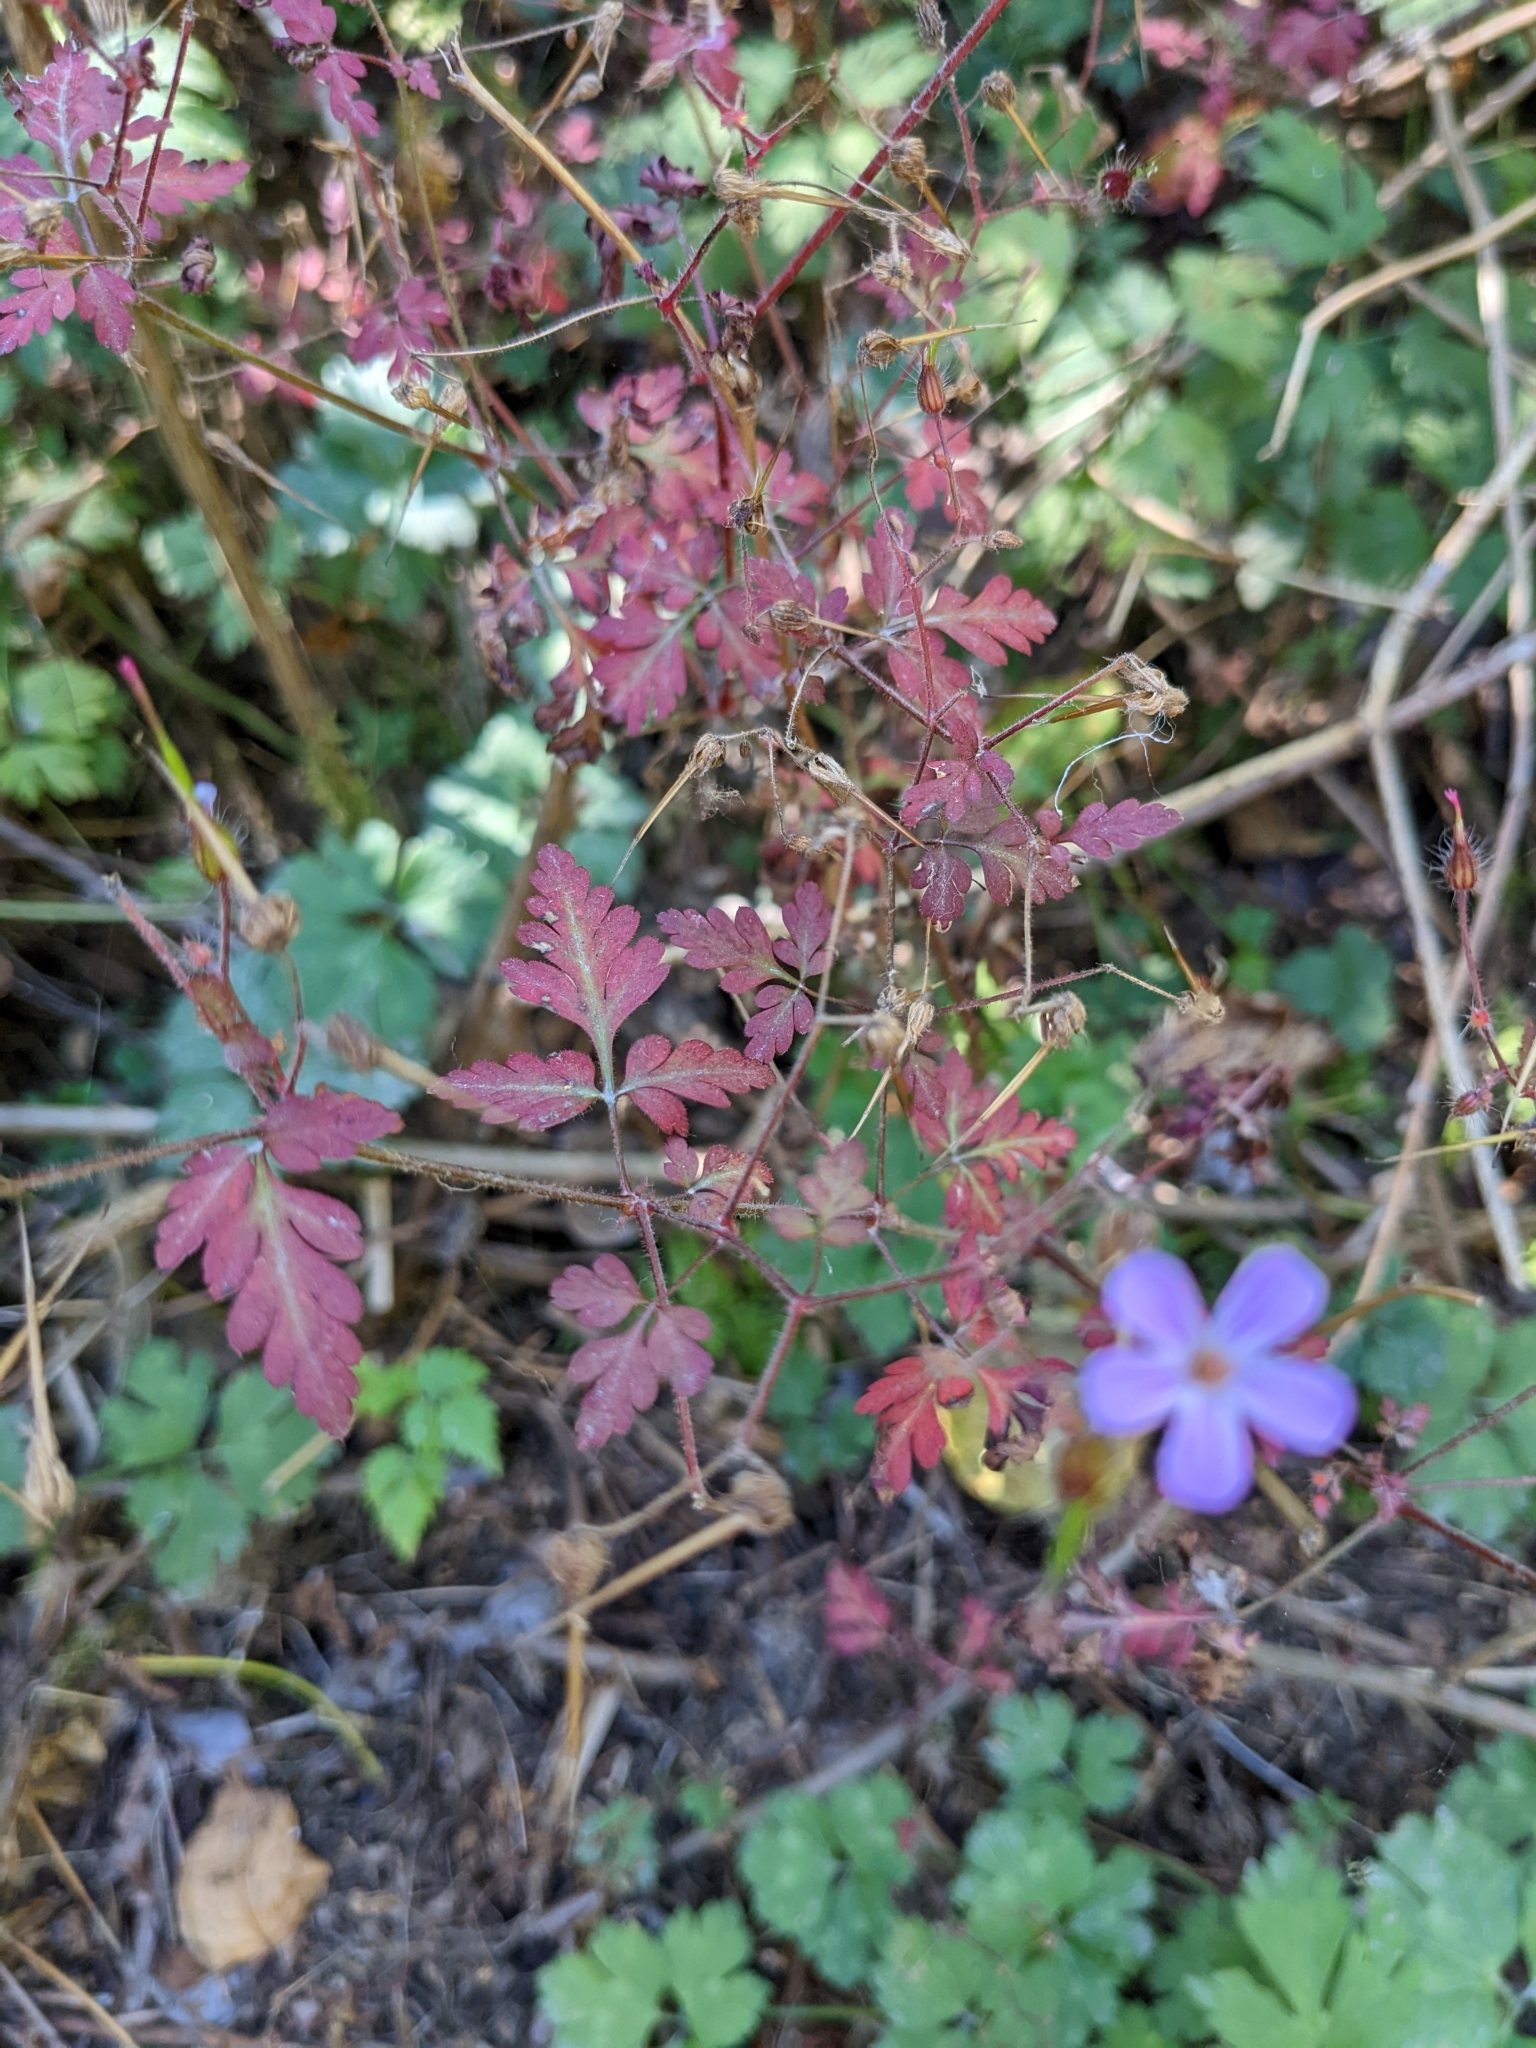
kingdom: Plantae
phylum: Tracheophyta
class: Magnoliopsida
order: Geraniales
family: Geraniaceae
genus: Geranium
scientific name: Geranium robertianum
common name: Herb-robert
